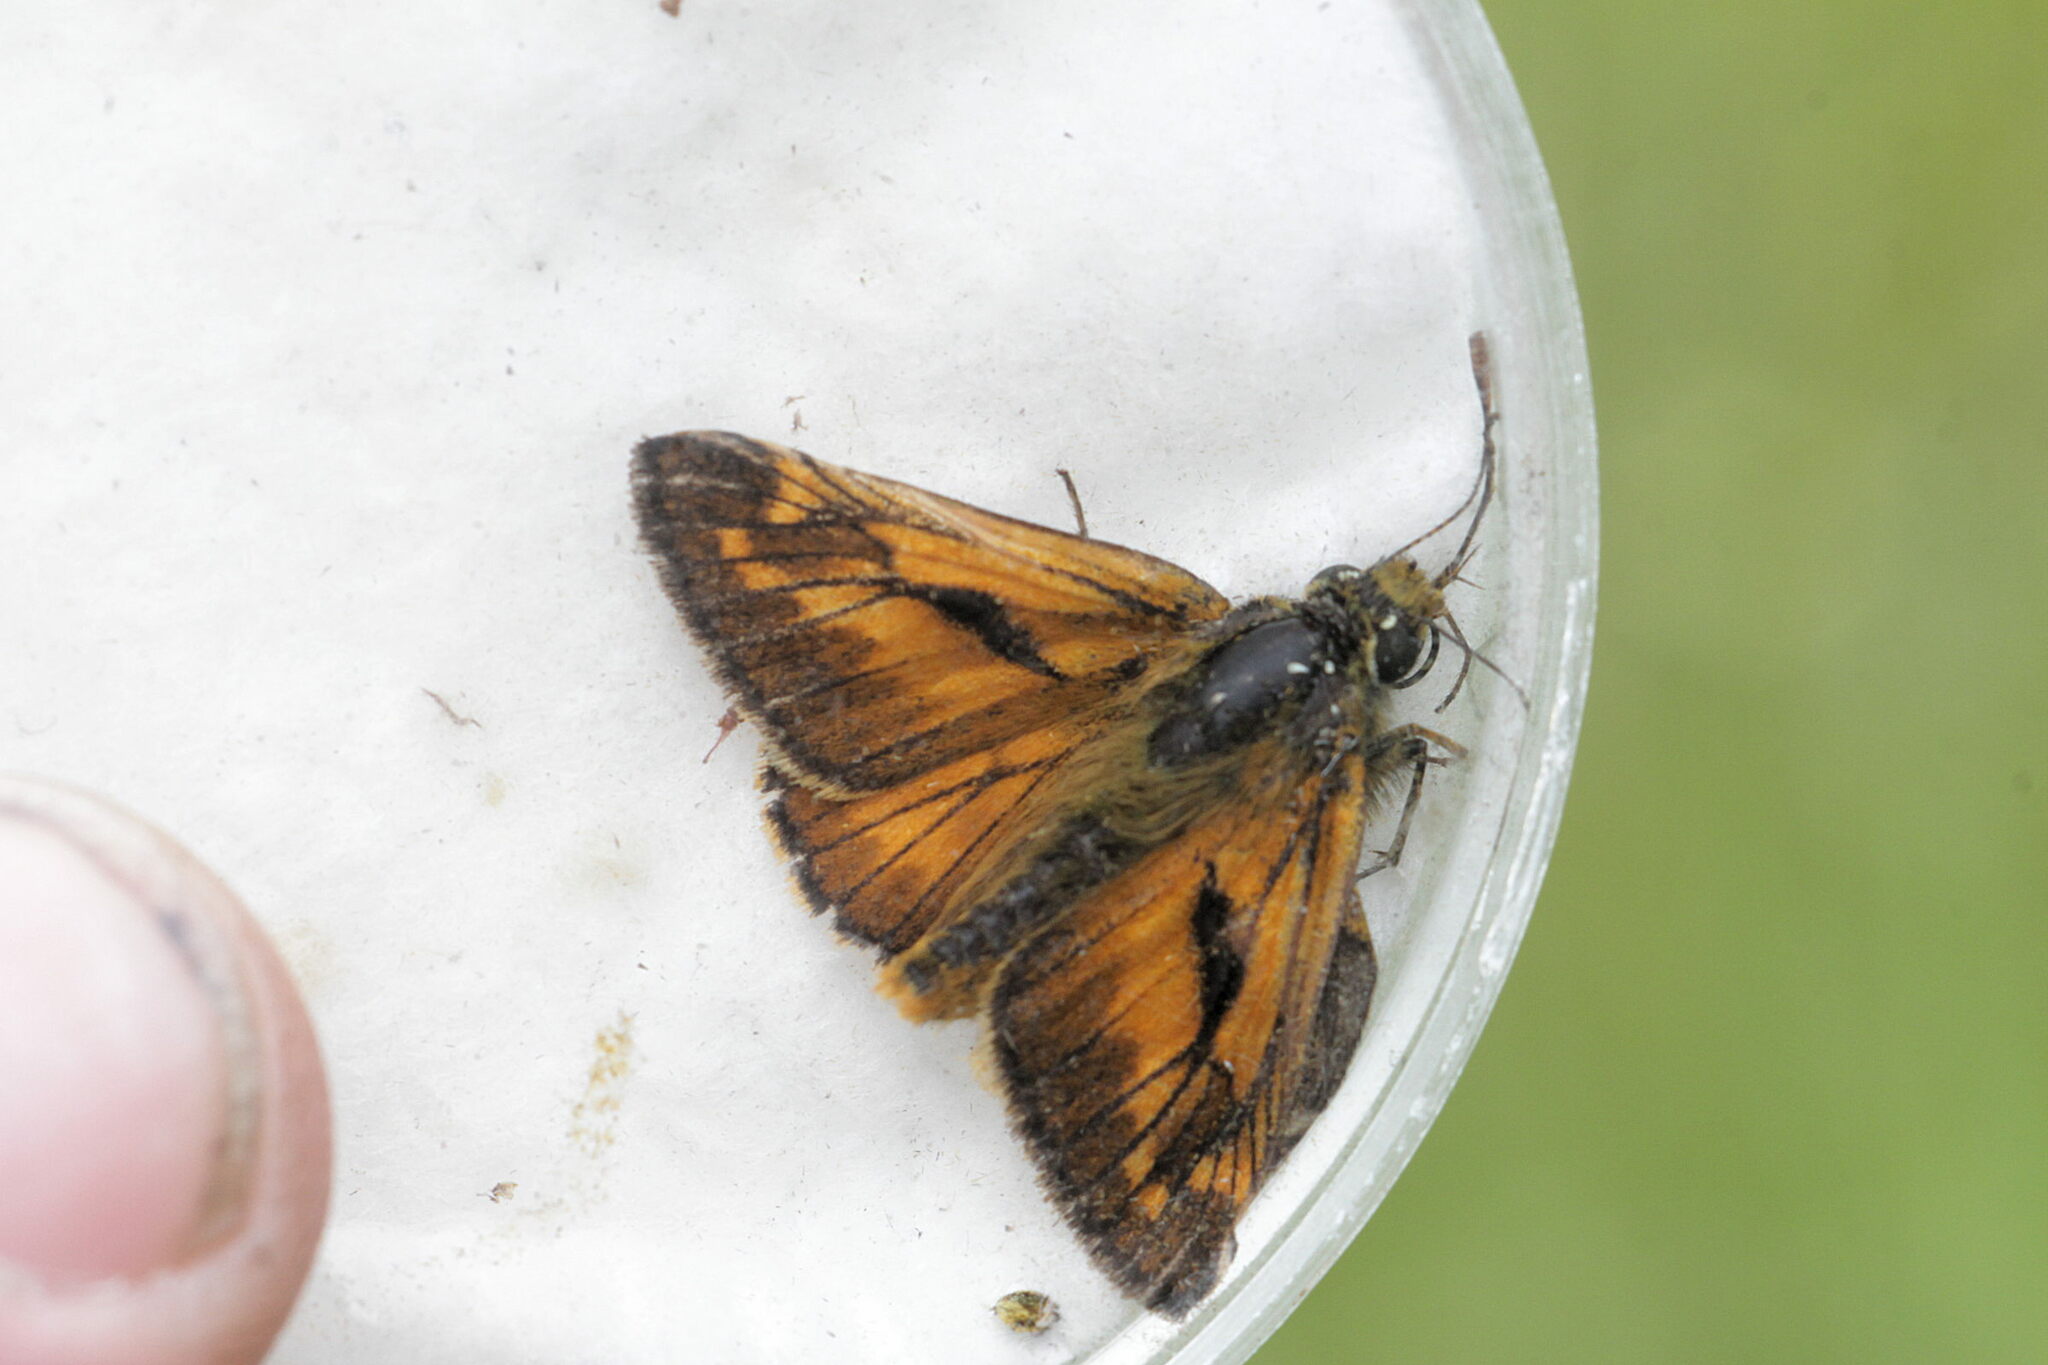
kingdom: Animalia
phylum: Arthropoda
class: Insecta
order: Lepidoptera
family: Hesperiidae
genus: Ochlodes
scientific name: Ochlodes venata
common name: Large skipper
